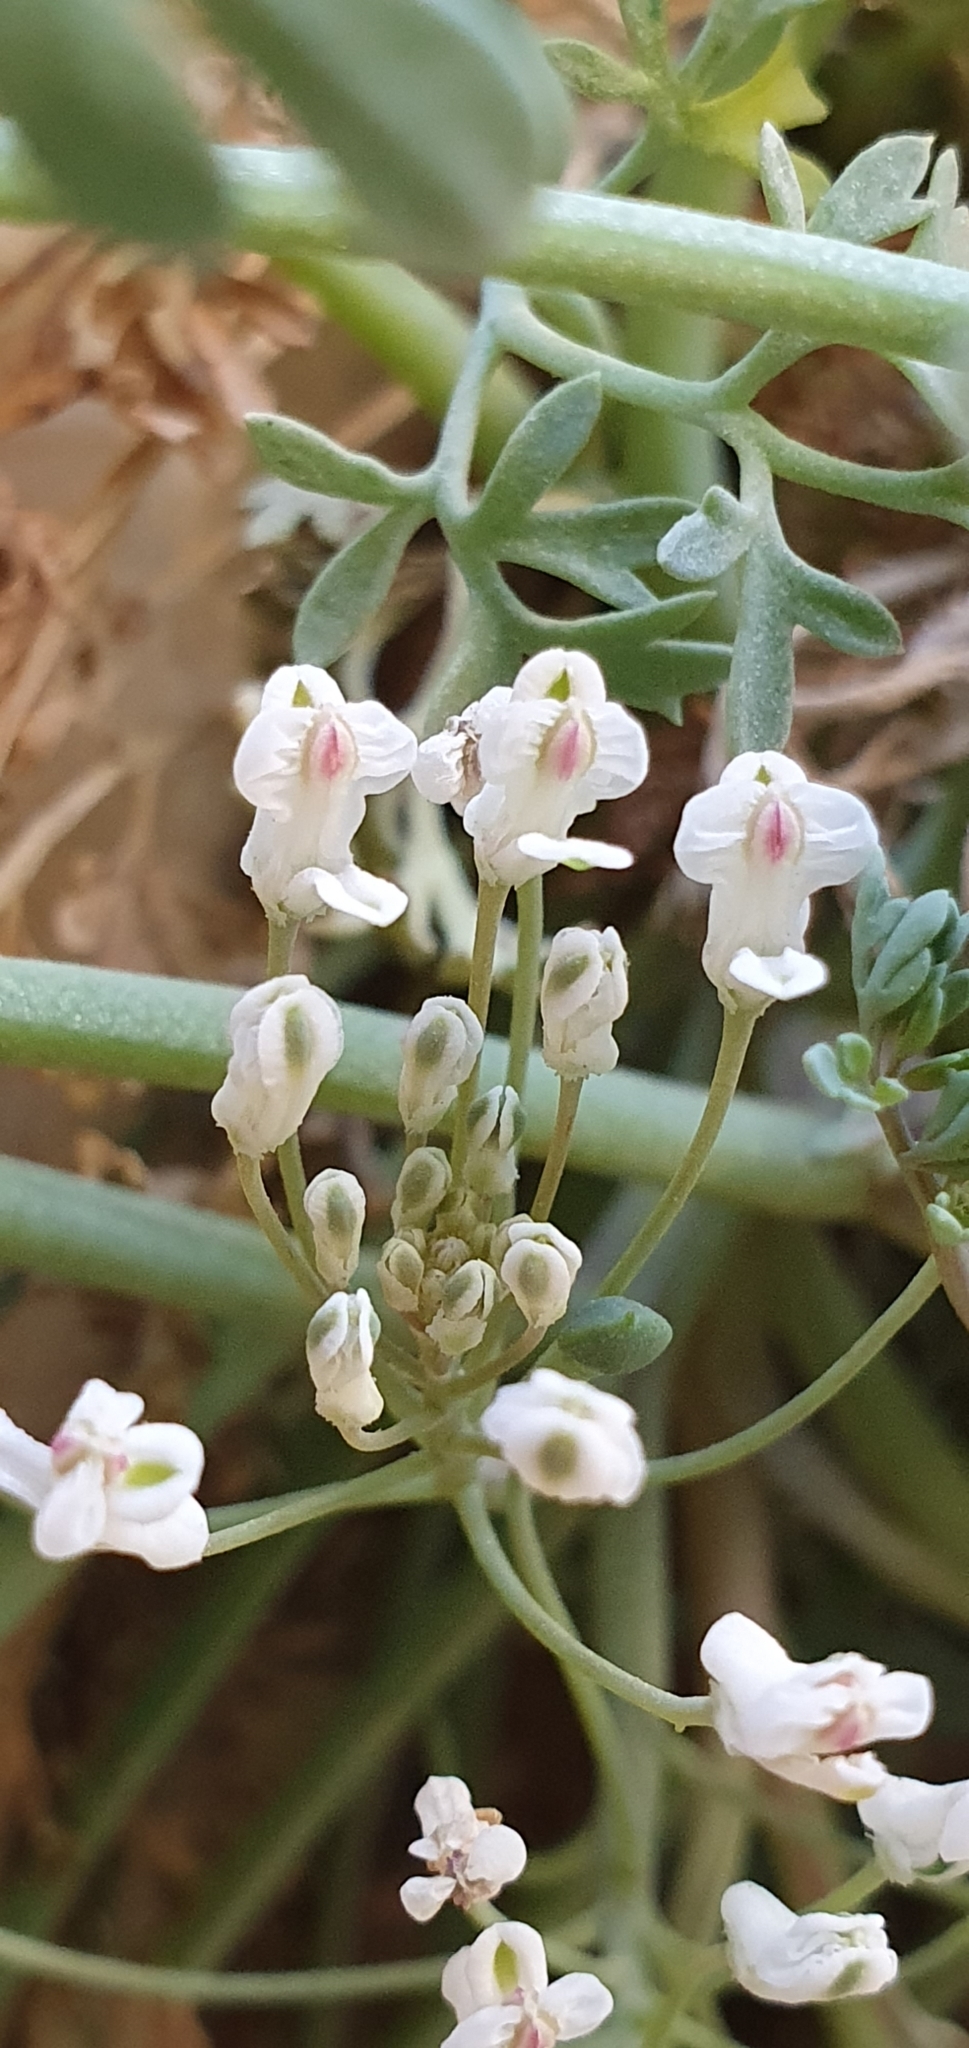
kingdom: Plantae
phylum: Tracheophyta
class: Magnoliopsida
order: Ranunculales
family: Papaveraceae
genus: Rupicapnos
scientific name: Rupicapnos numidica
